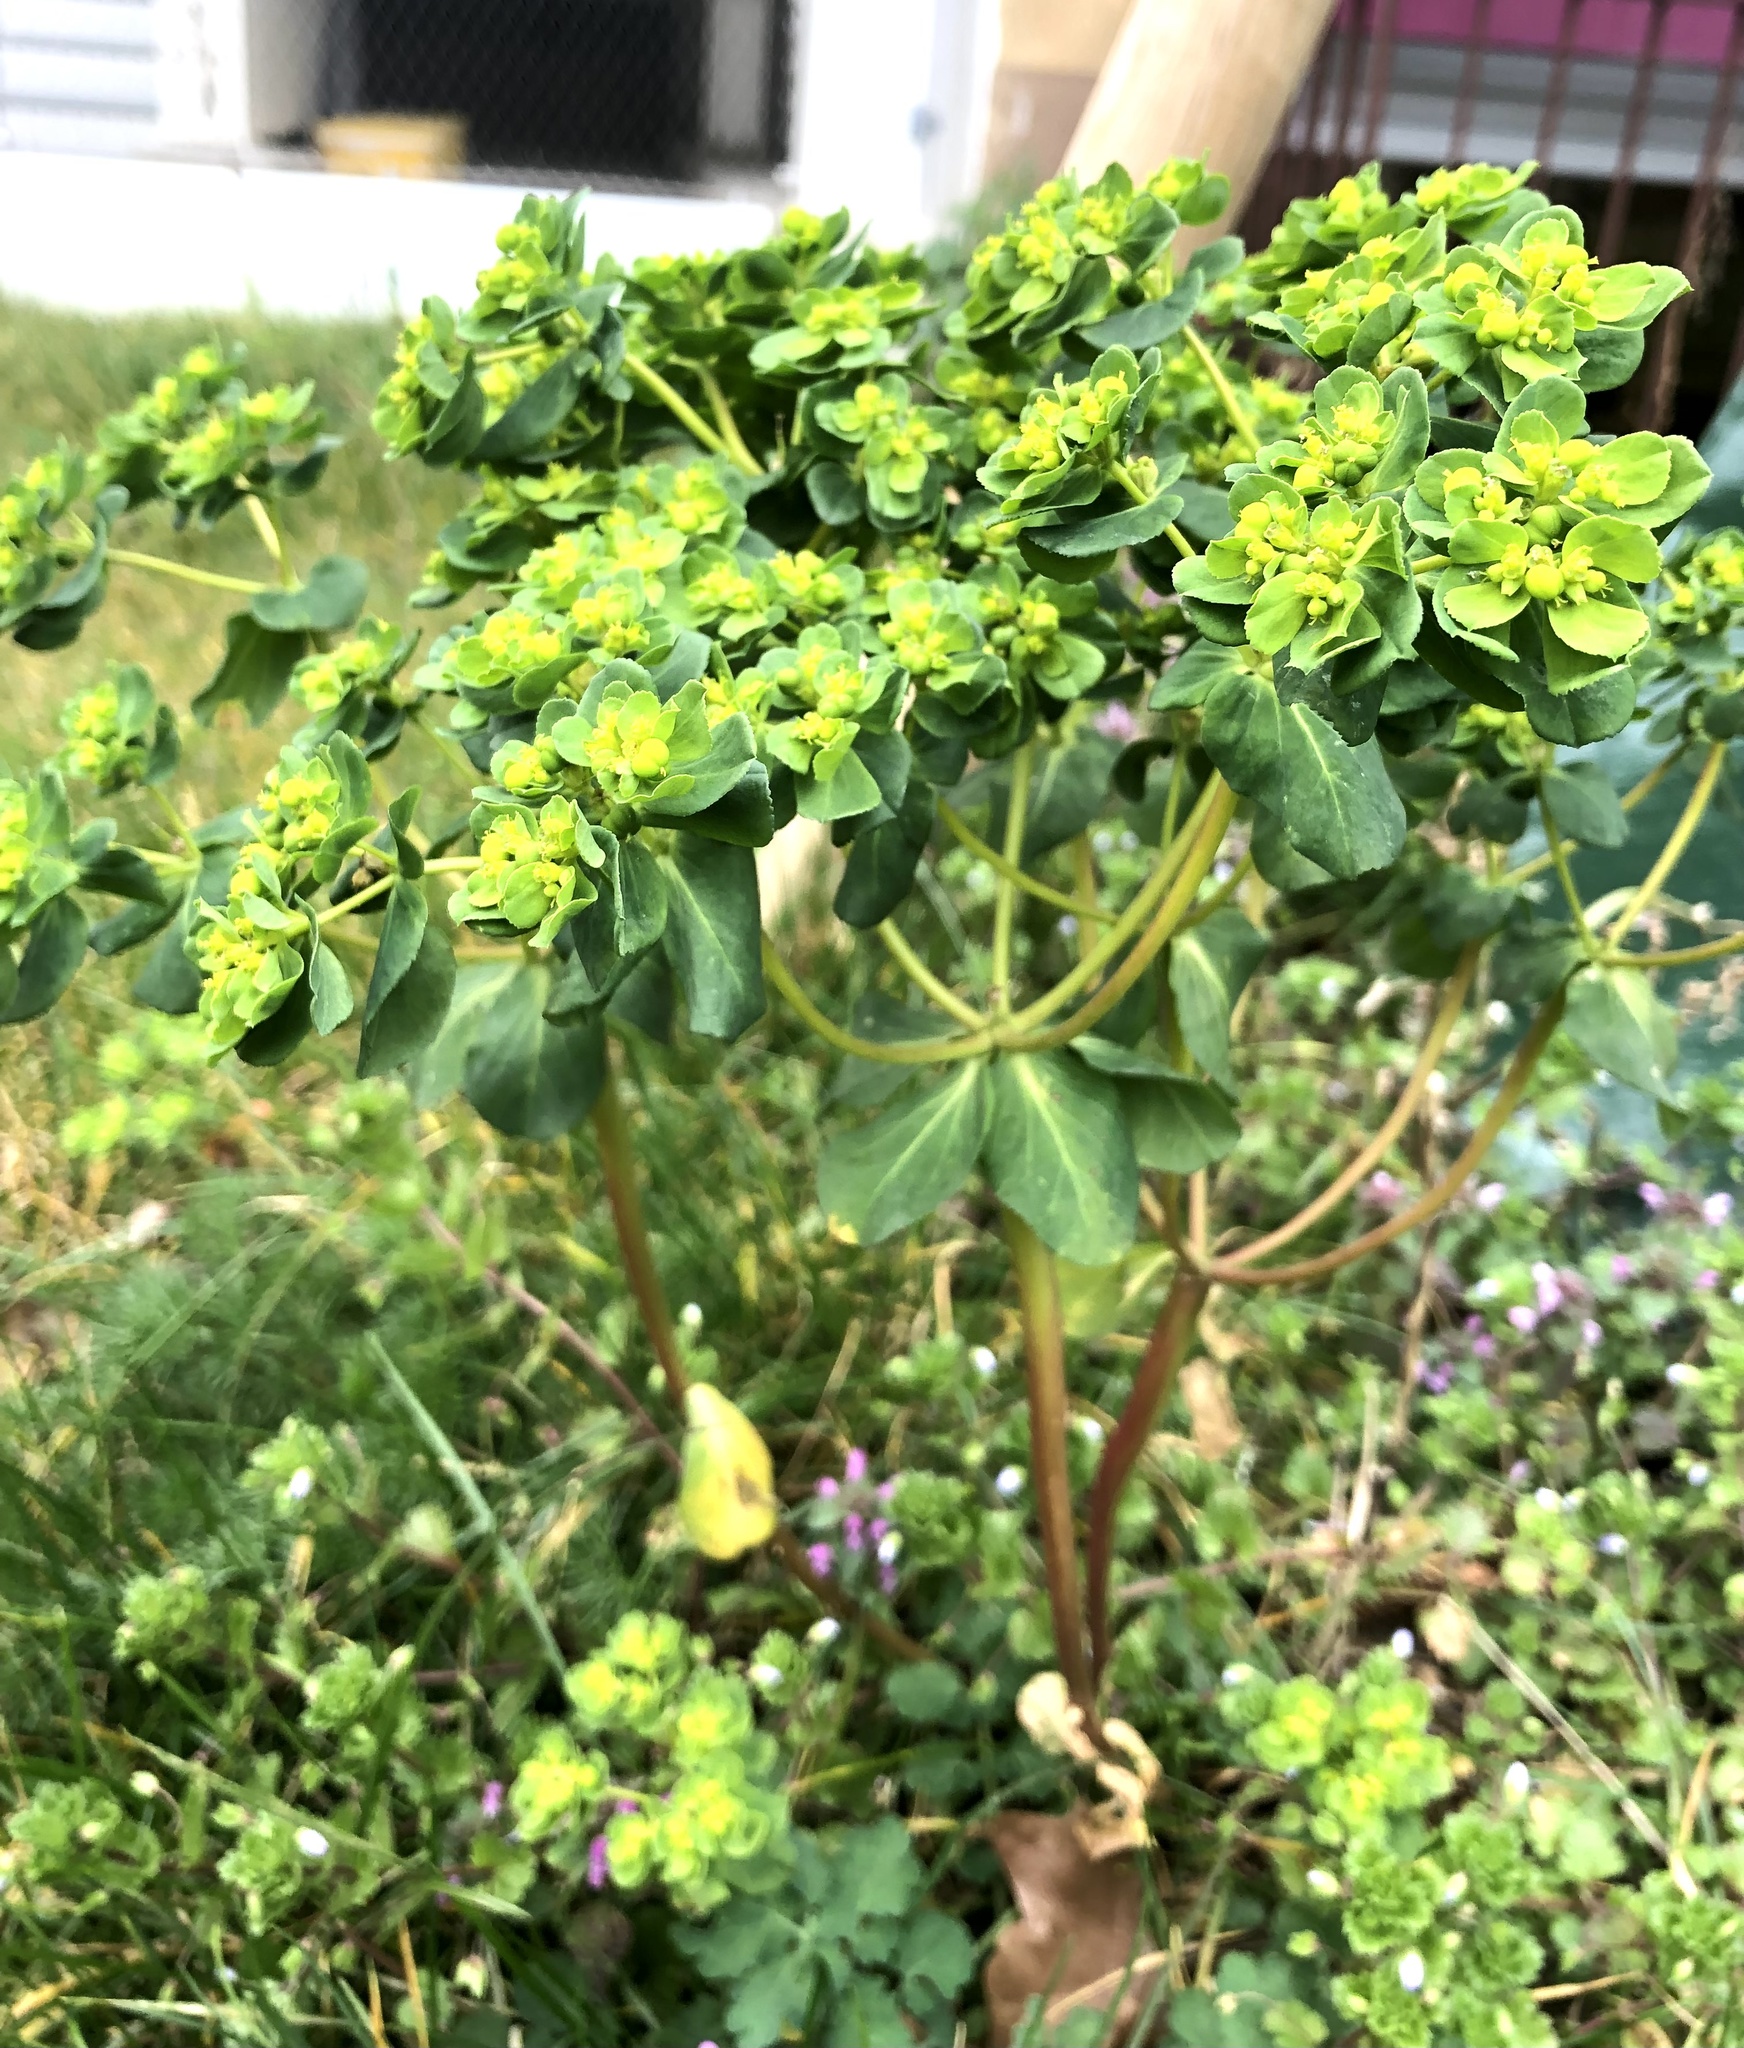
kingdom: Plantae
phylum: Tracheophyta
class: Magnoliopsida
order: Malpighiales
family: Euphorbiaceae
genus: Euphorbia
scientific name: Euphorbia helioscopia
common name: Sun spurge
